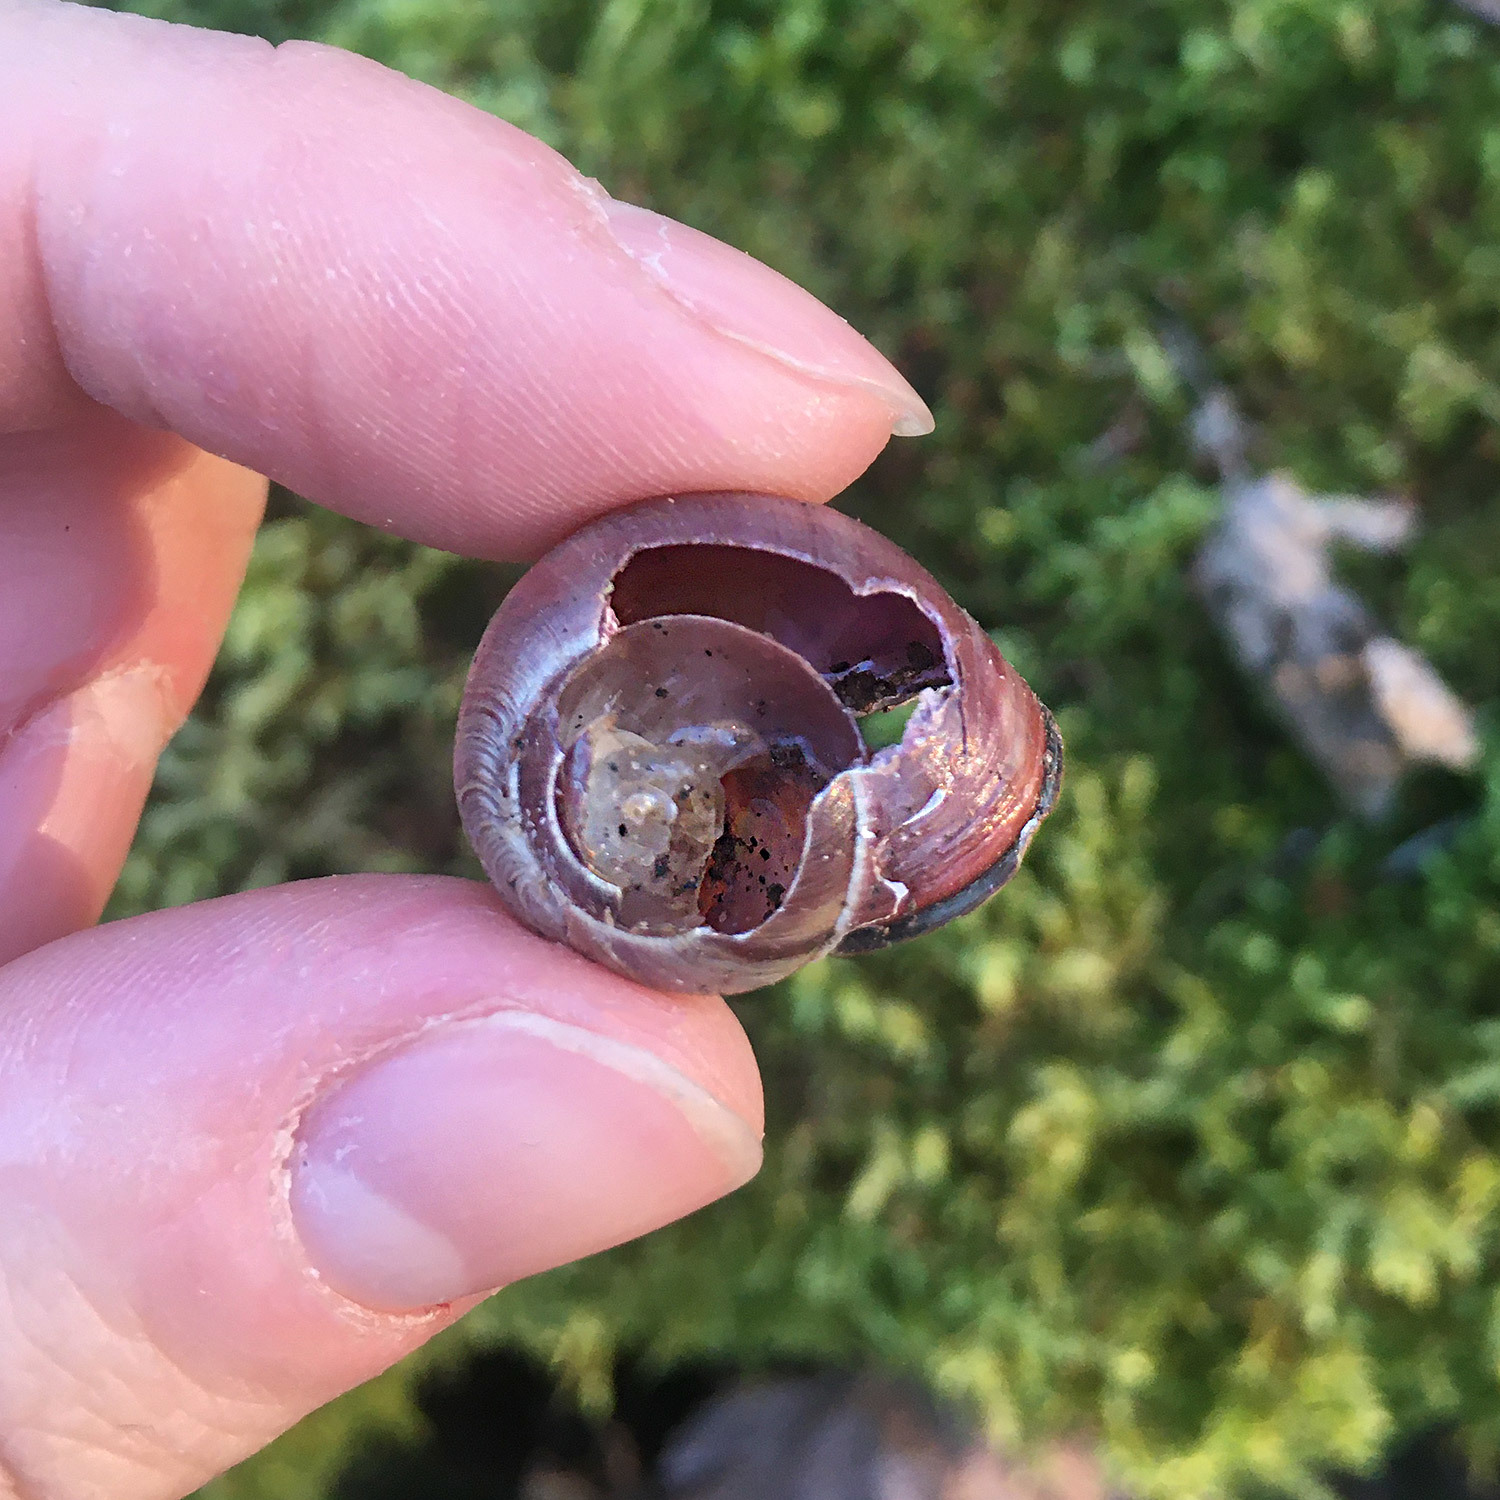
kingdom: Animalia
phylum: Mollusca
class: Gastropoda
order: Stylommatophora
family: Helicidae
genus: Cepaea
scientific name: Cepaea nemoralis
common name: Grovesnail
